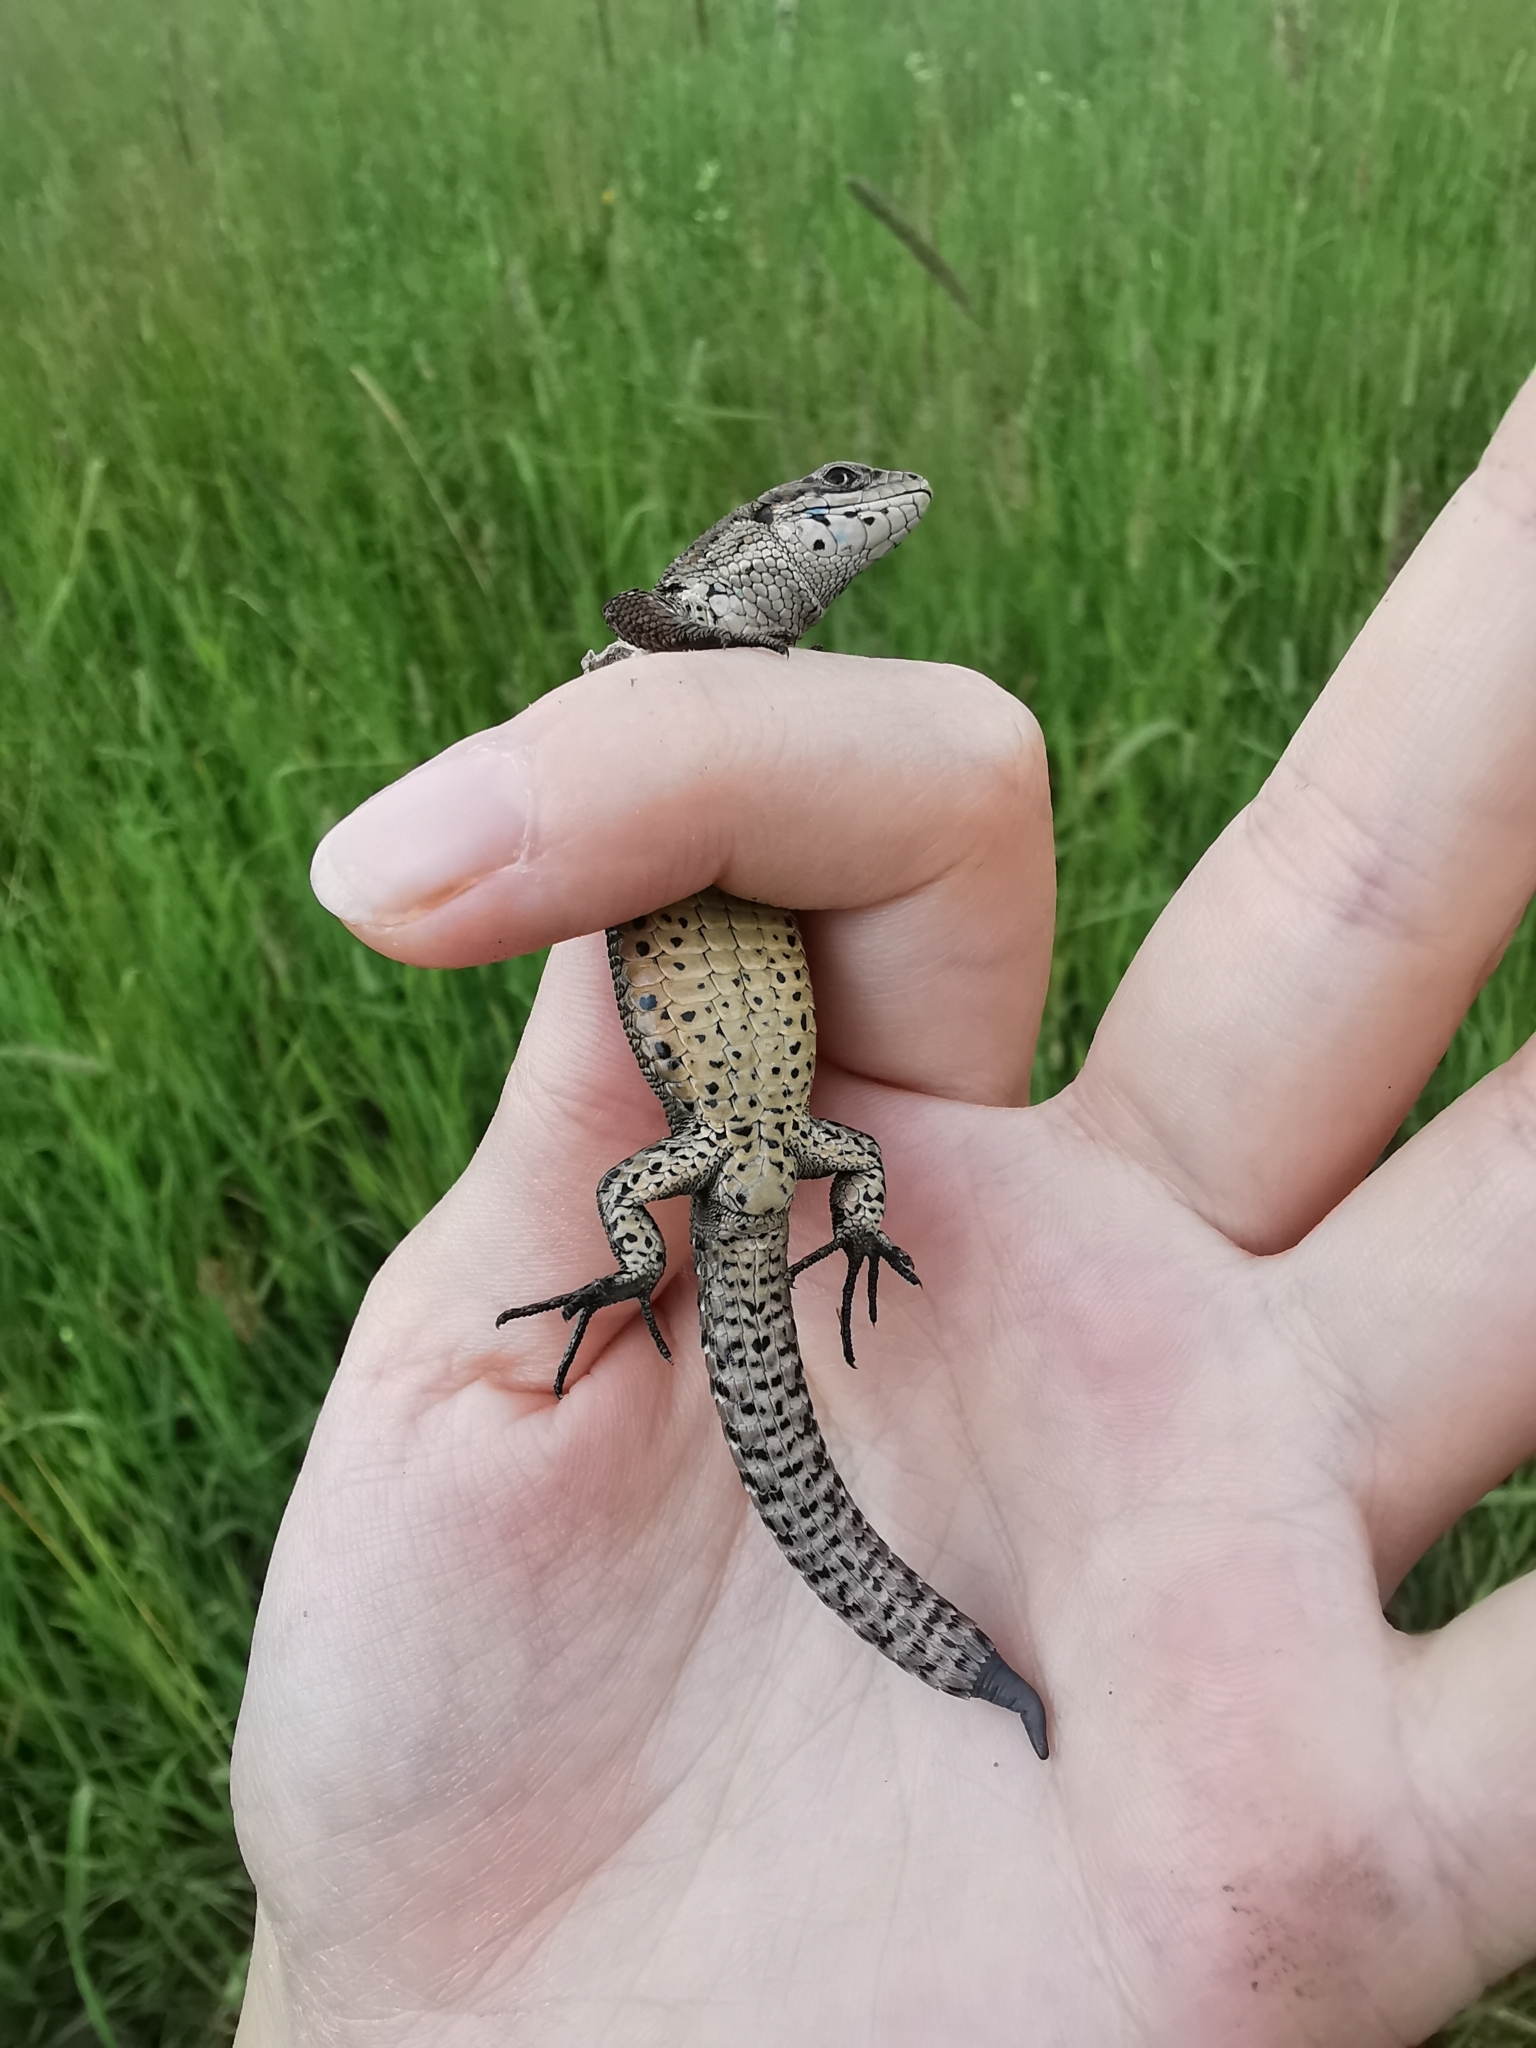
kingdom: Animalia
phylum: Chordata
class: Squamata
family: Lacertidae
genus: Zootoca
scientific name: Zootoca vivipara
